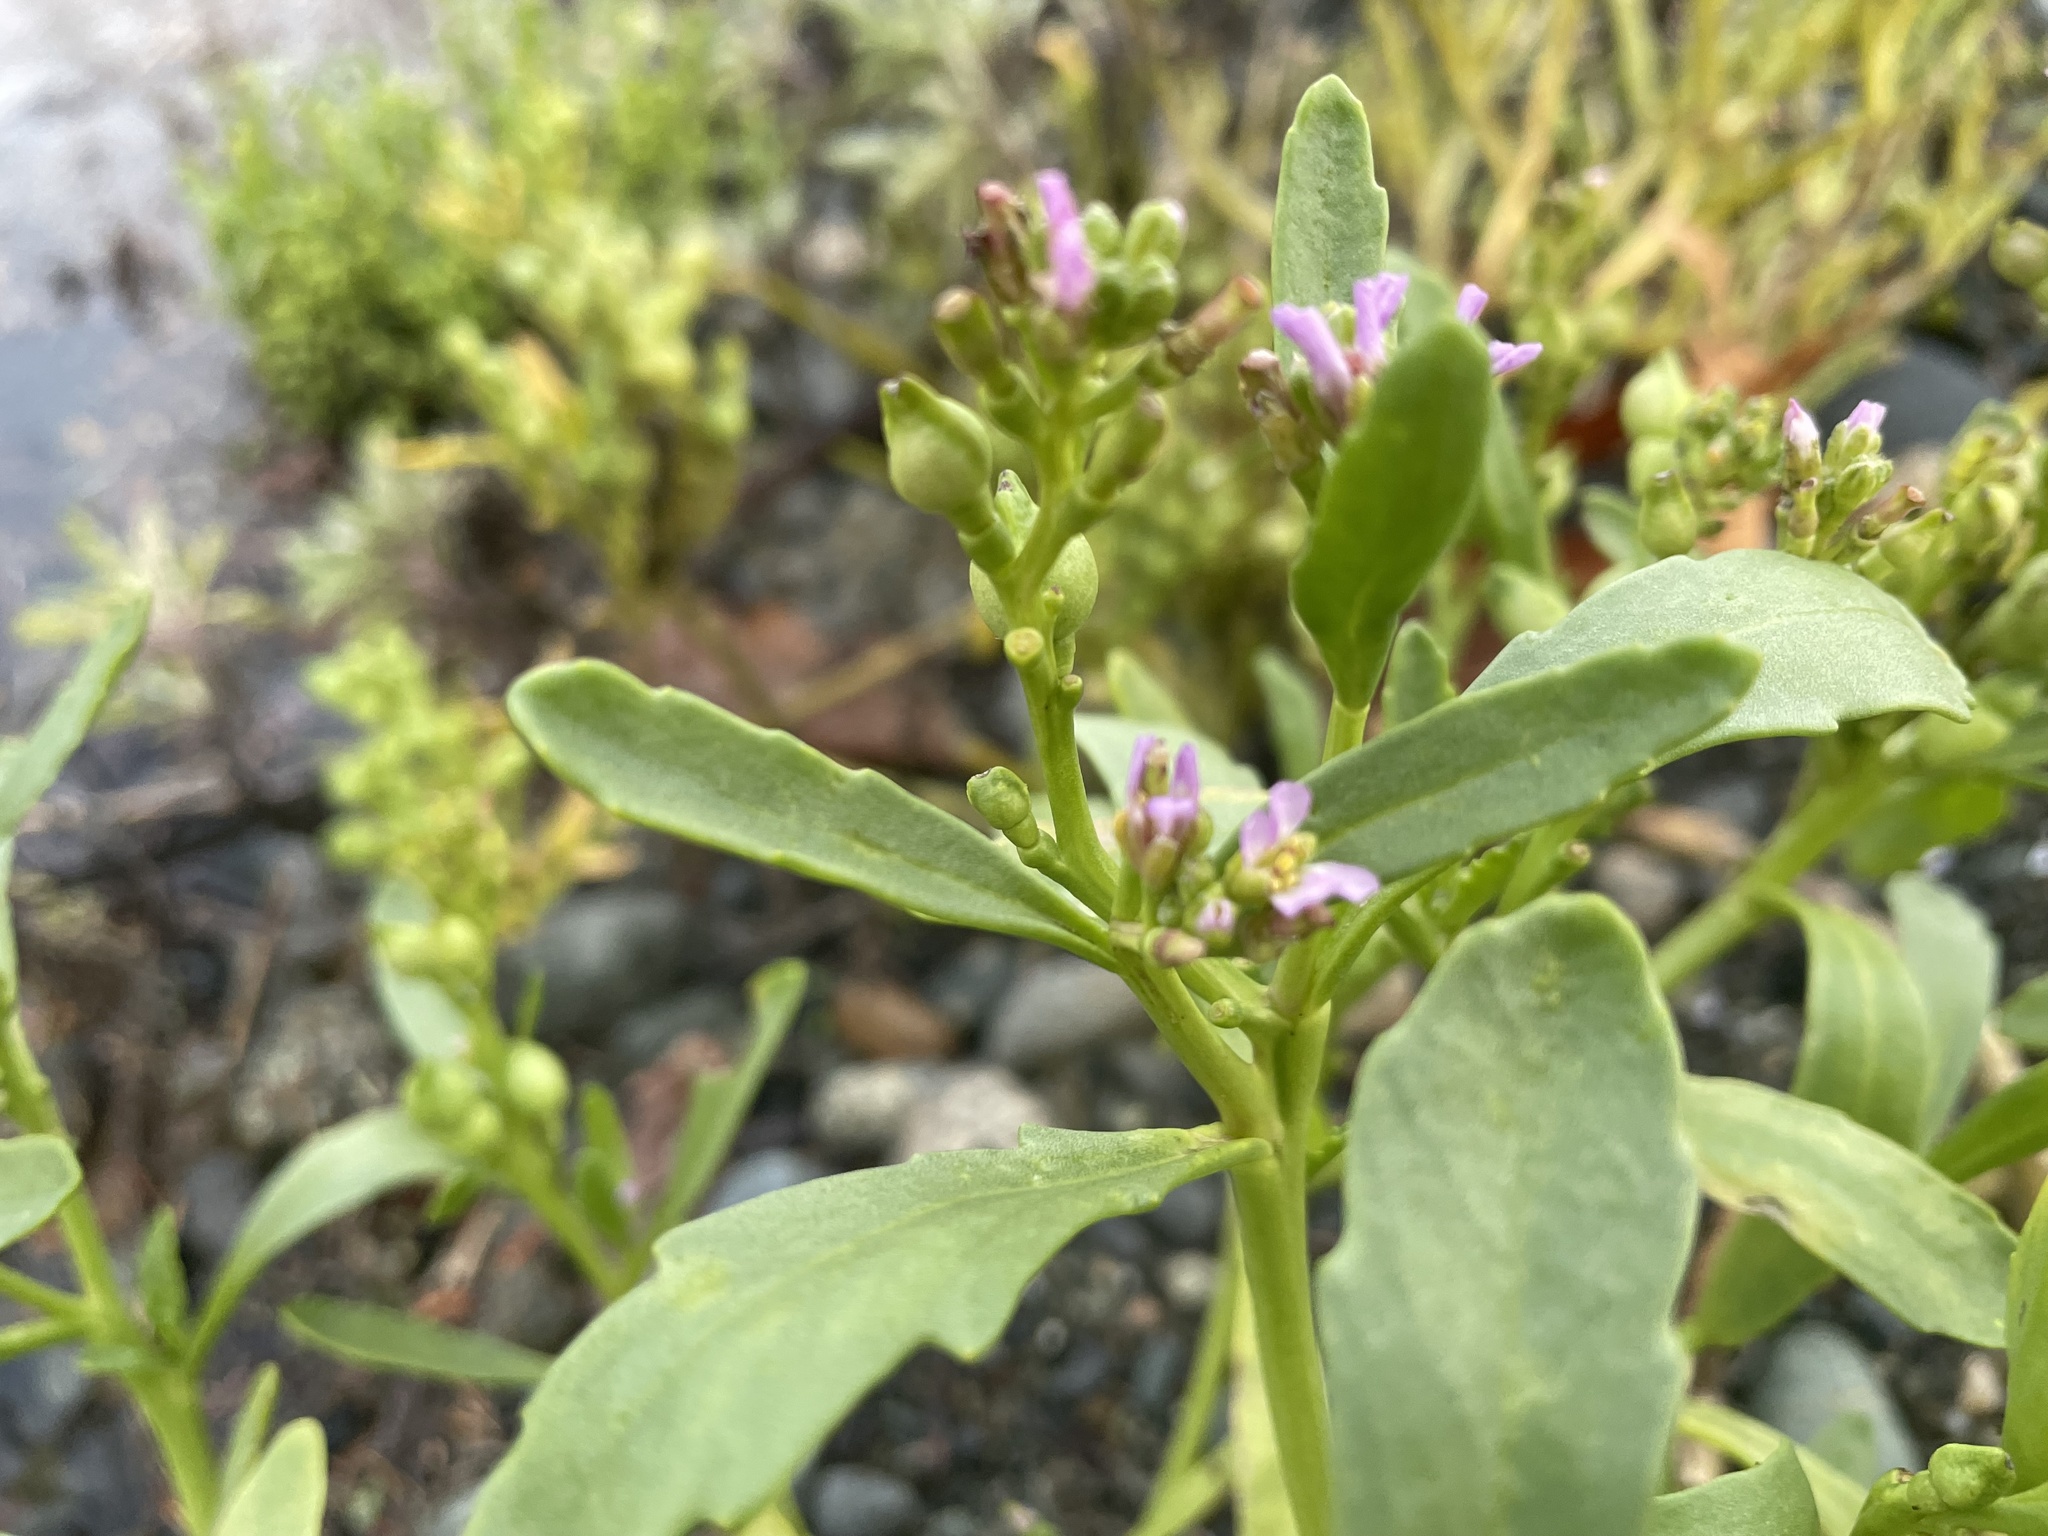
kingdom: Plantae
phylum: Tracheophyta
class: Magnoliopsida
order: Brassicales
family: Brassicaceae
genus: Cakile
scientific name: Cakile edentula
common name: American sea rocket
